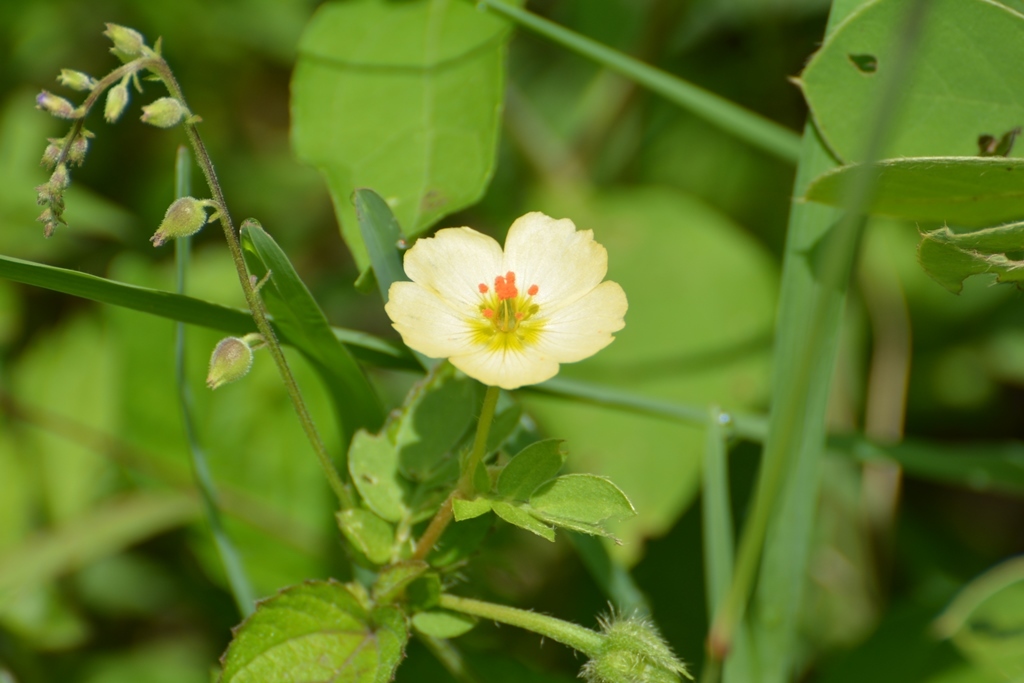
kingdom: Plantae
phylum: Tracheophyta
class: Magnoliopsida
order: Zygophyllales
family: Zygophyllaceae
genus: Kallstroemia
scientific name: Kallstroemia rosei
